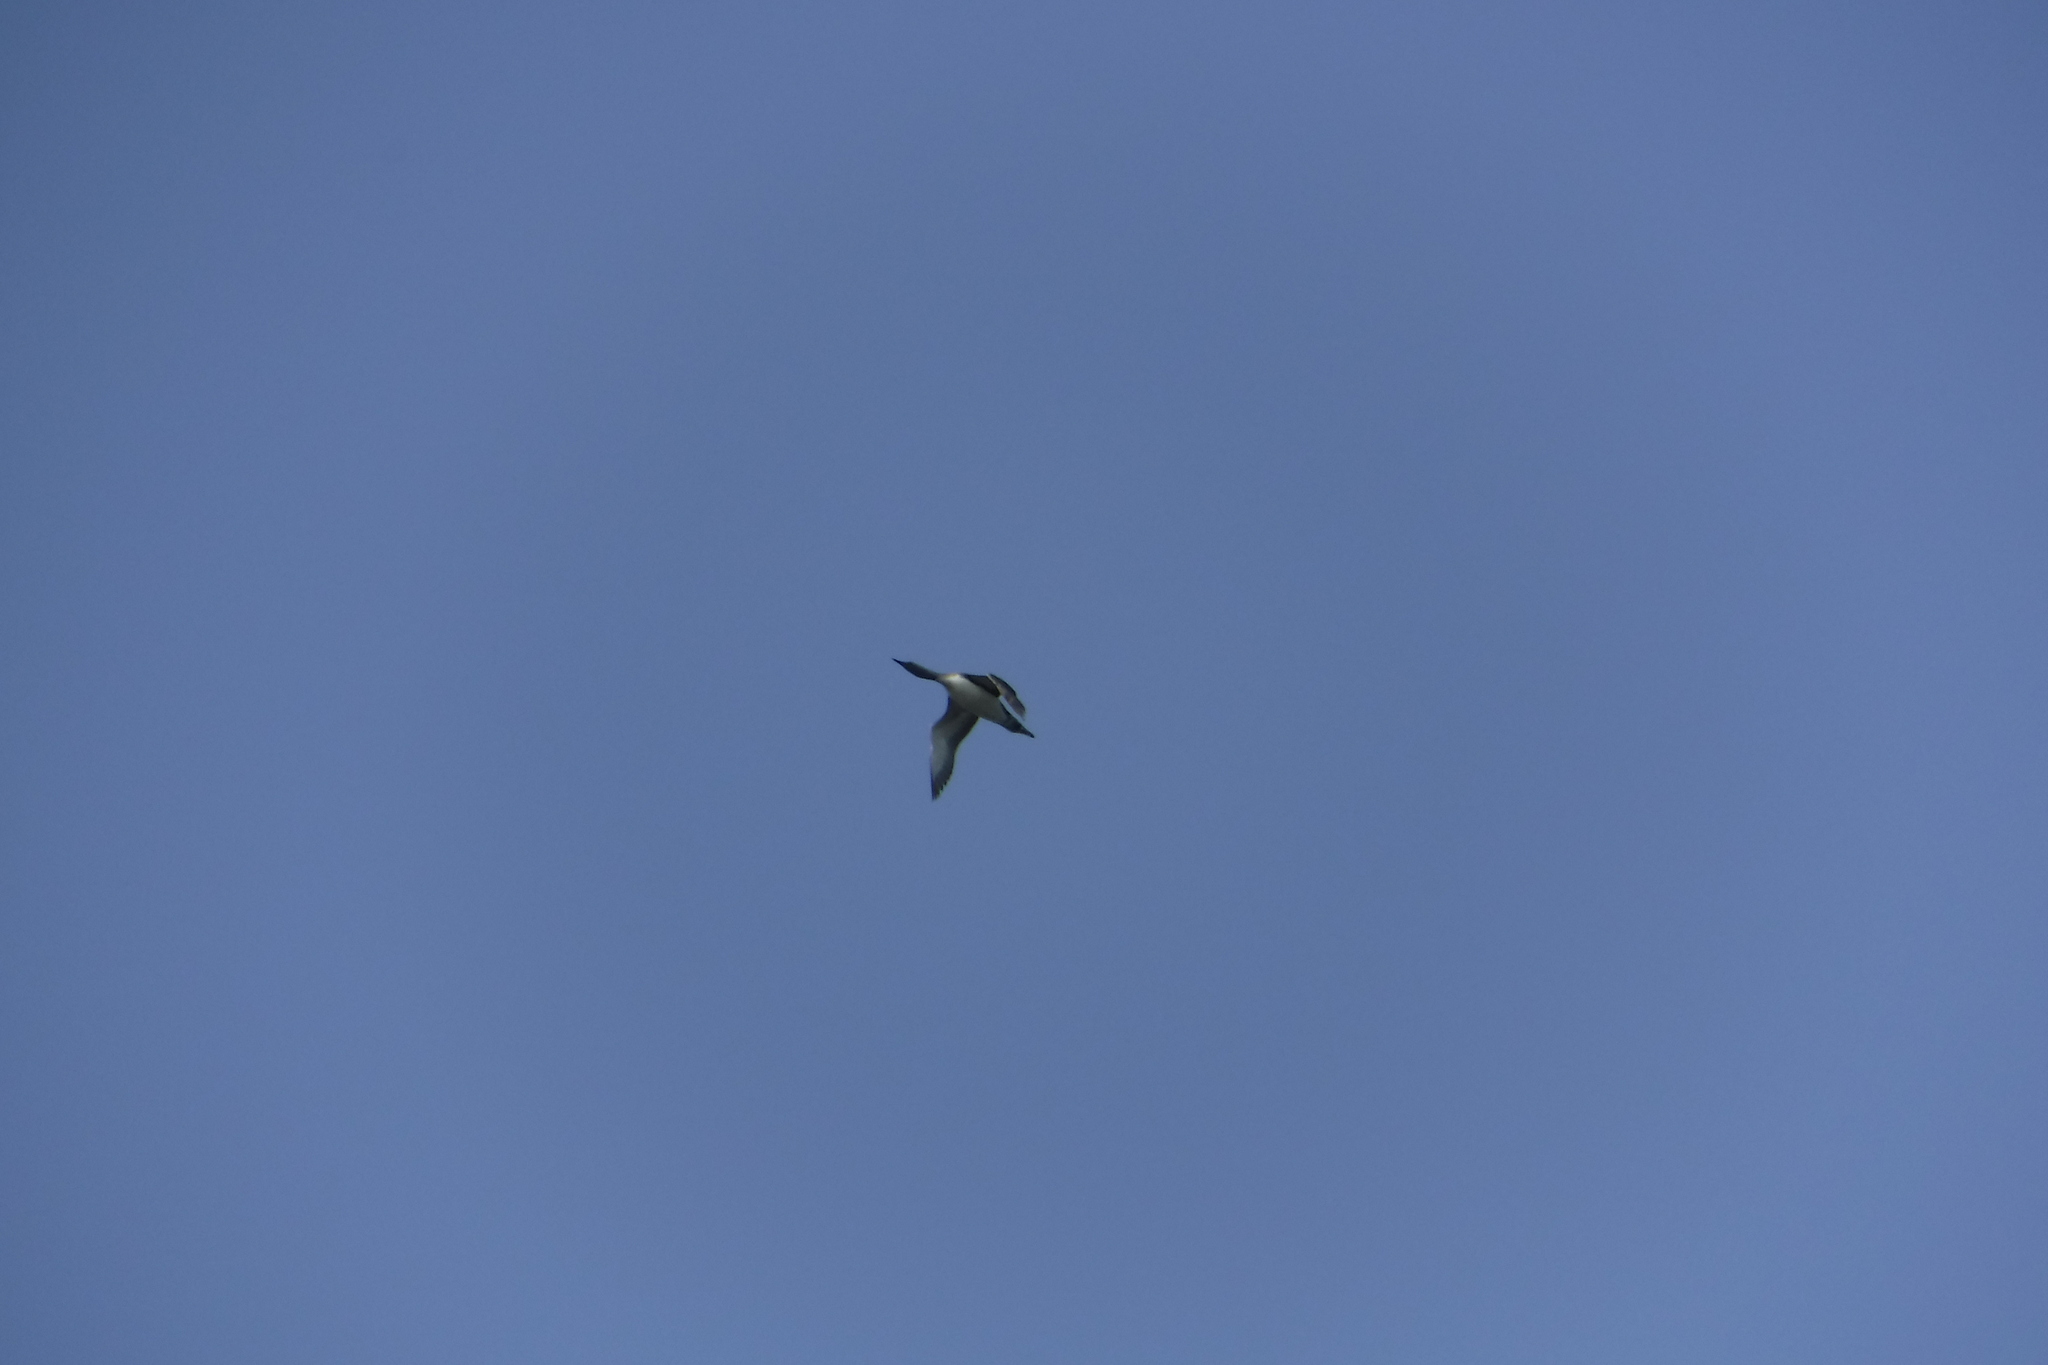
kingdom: Animalia
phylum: Chordata
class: Aves
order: Gaviiformes
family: Gaviidae
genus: Gavia
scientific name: Gavia stellata
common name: Red-throated loon
